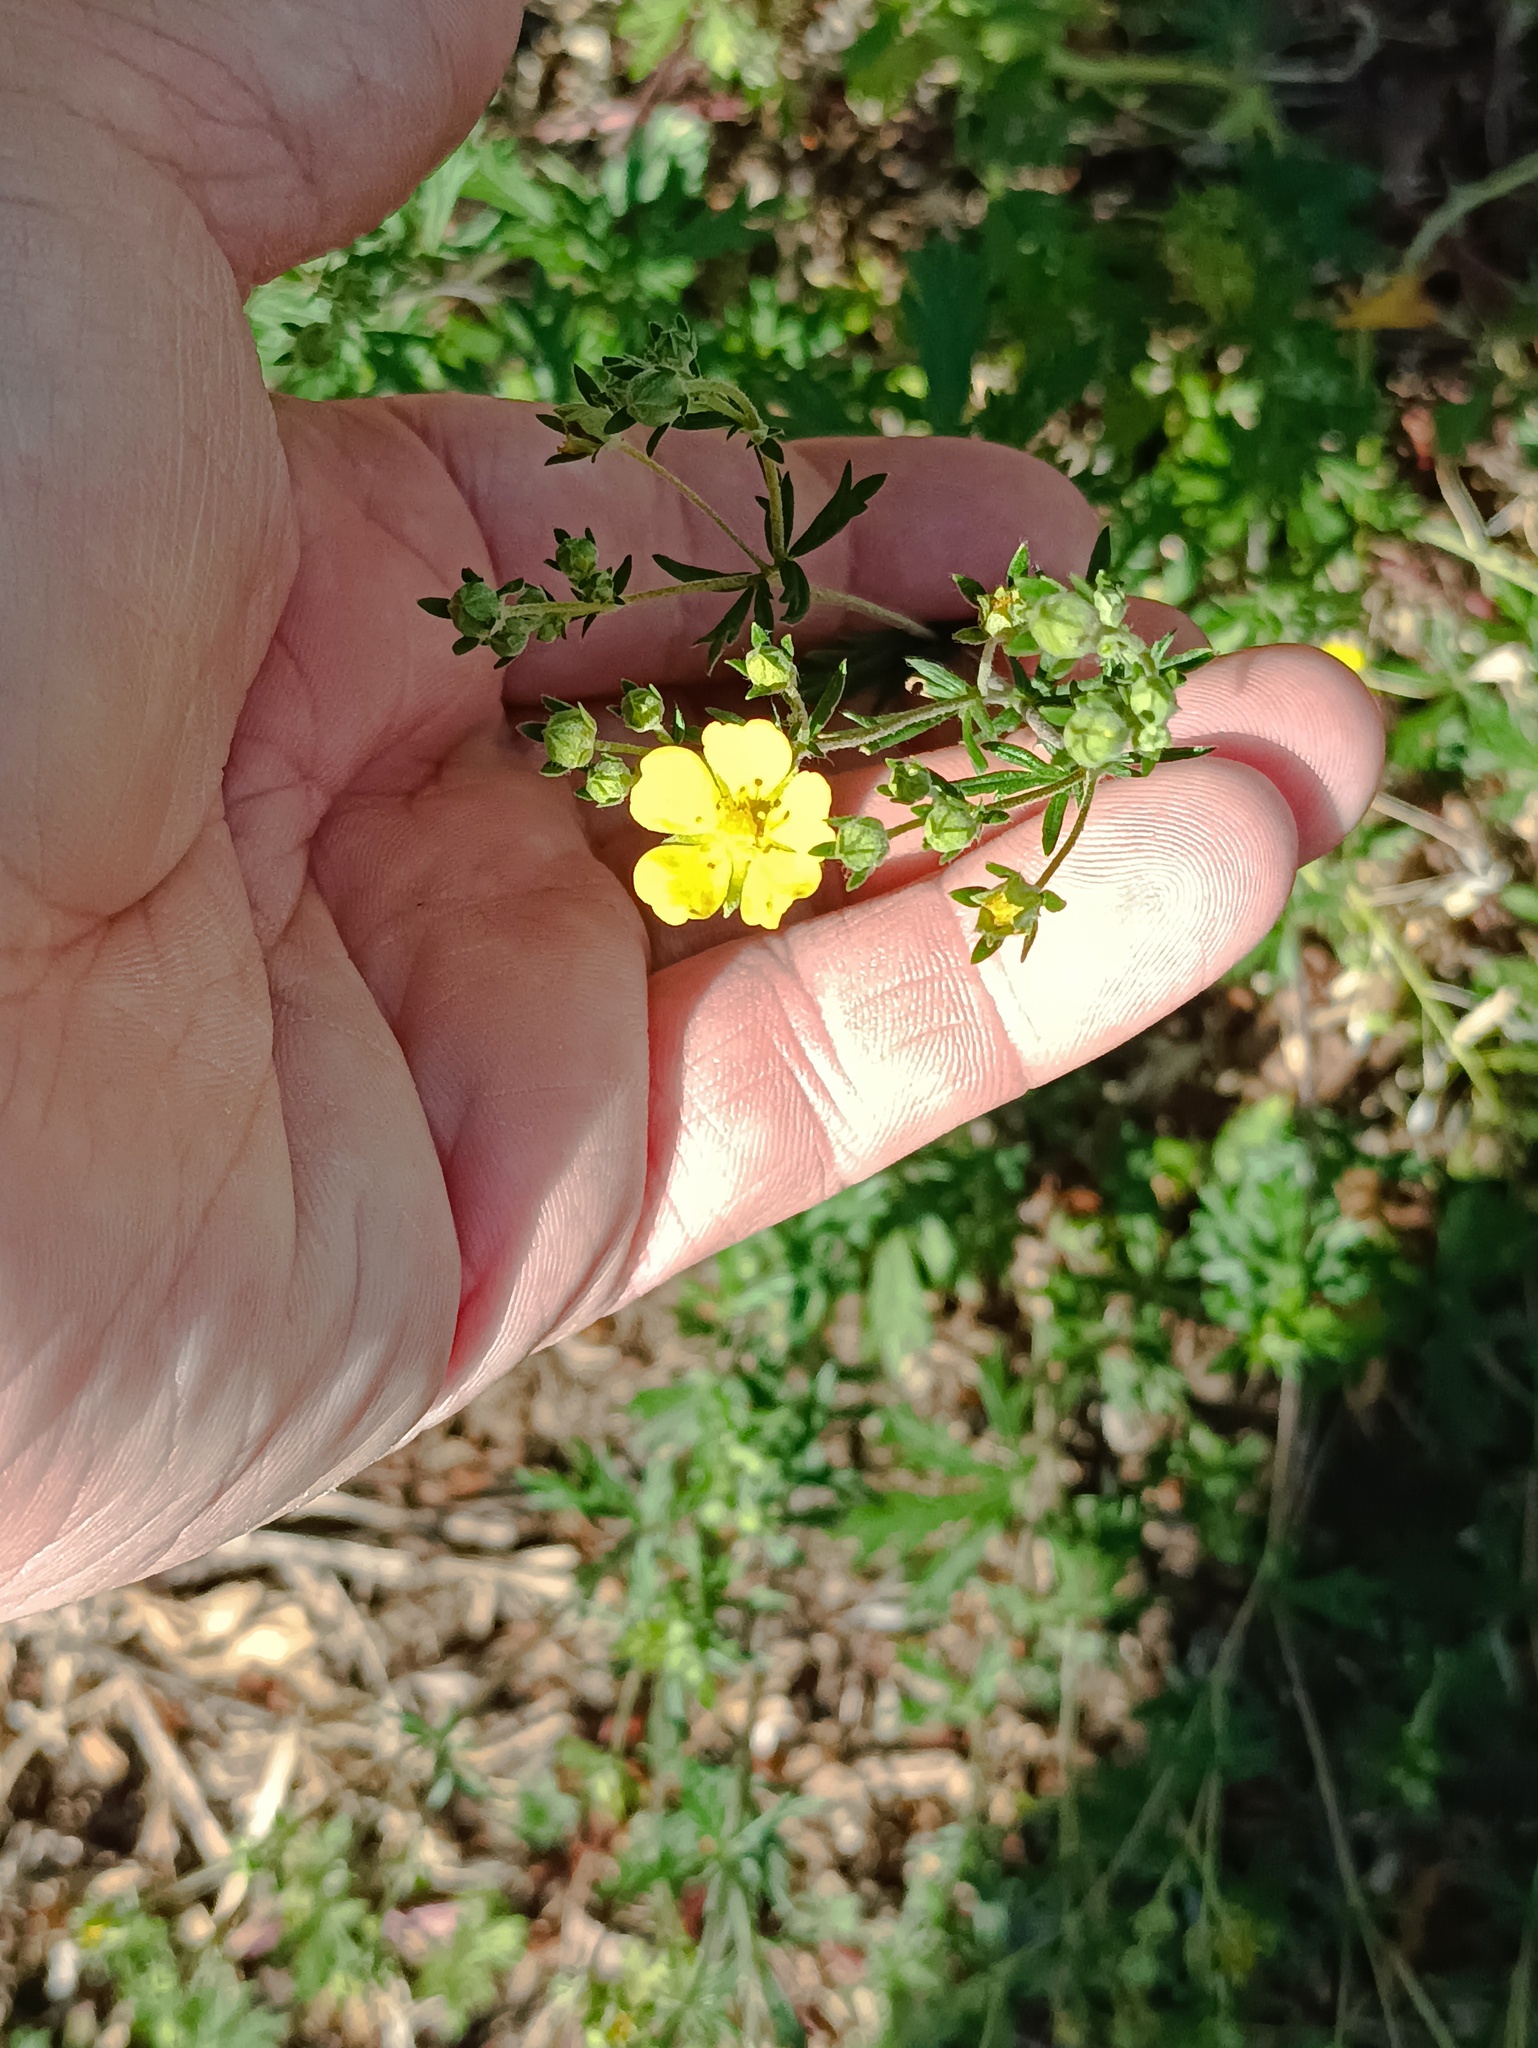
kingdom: Plantae
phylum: Tracheophyta
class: Magnoliopsida
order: Rosales
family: Rosaceae
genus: Potentilla
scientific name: Potentilla argentea
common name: Hoary cinquefoil
